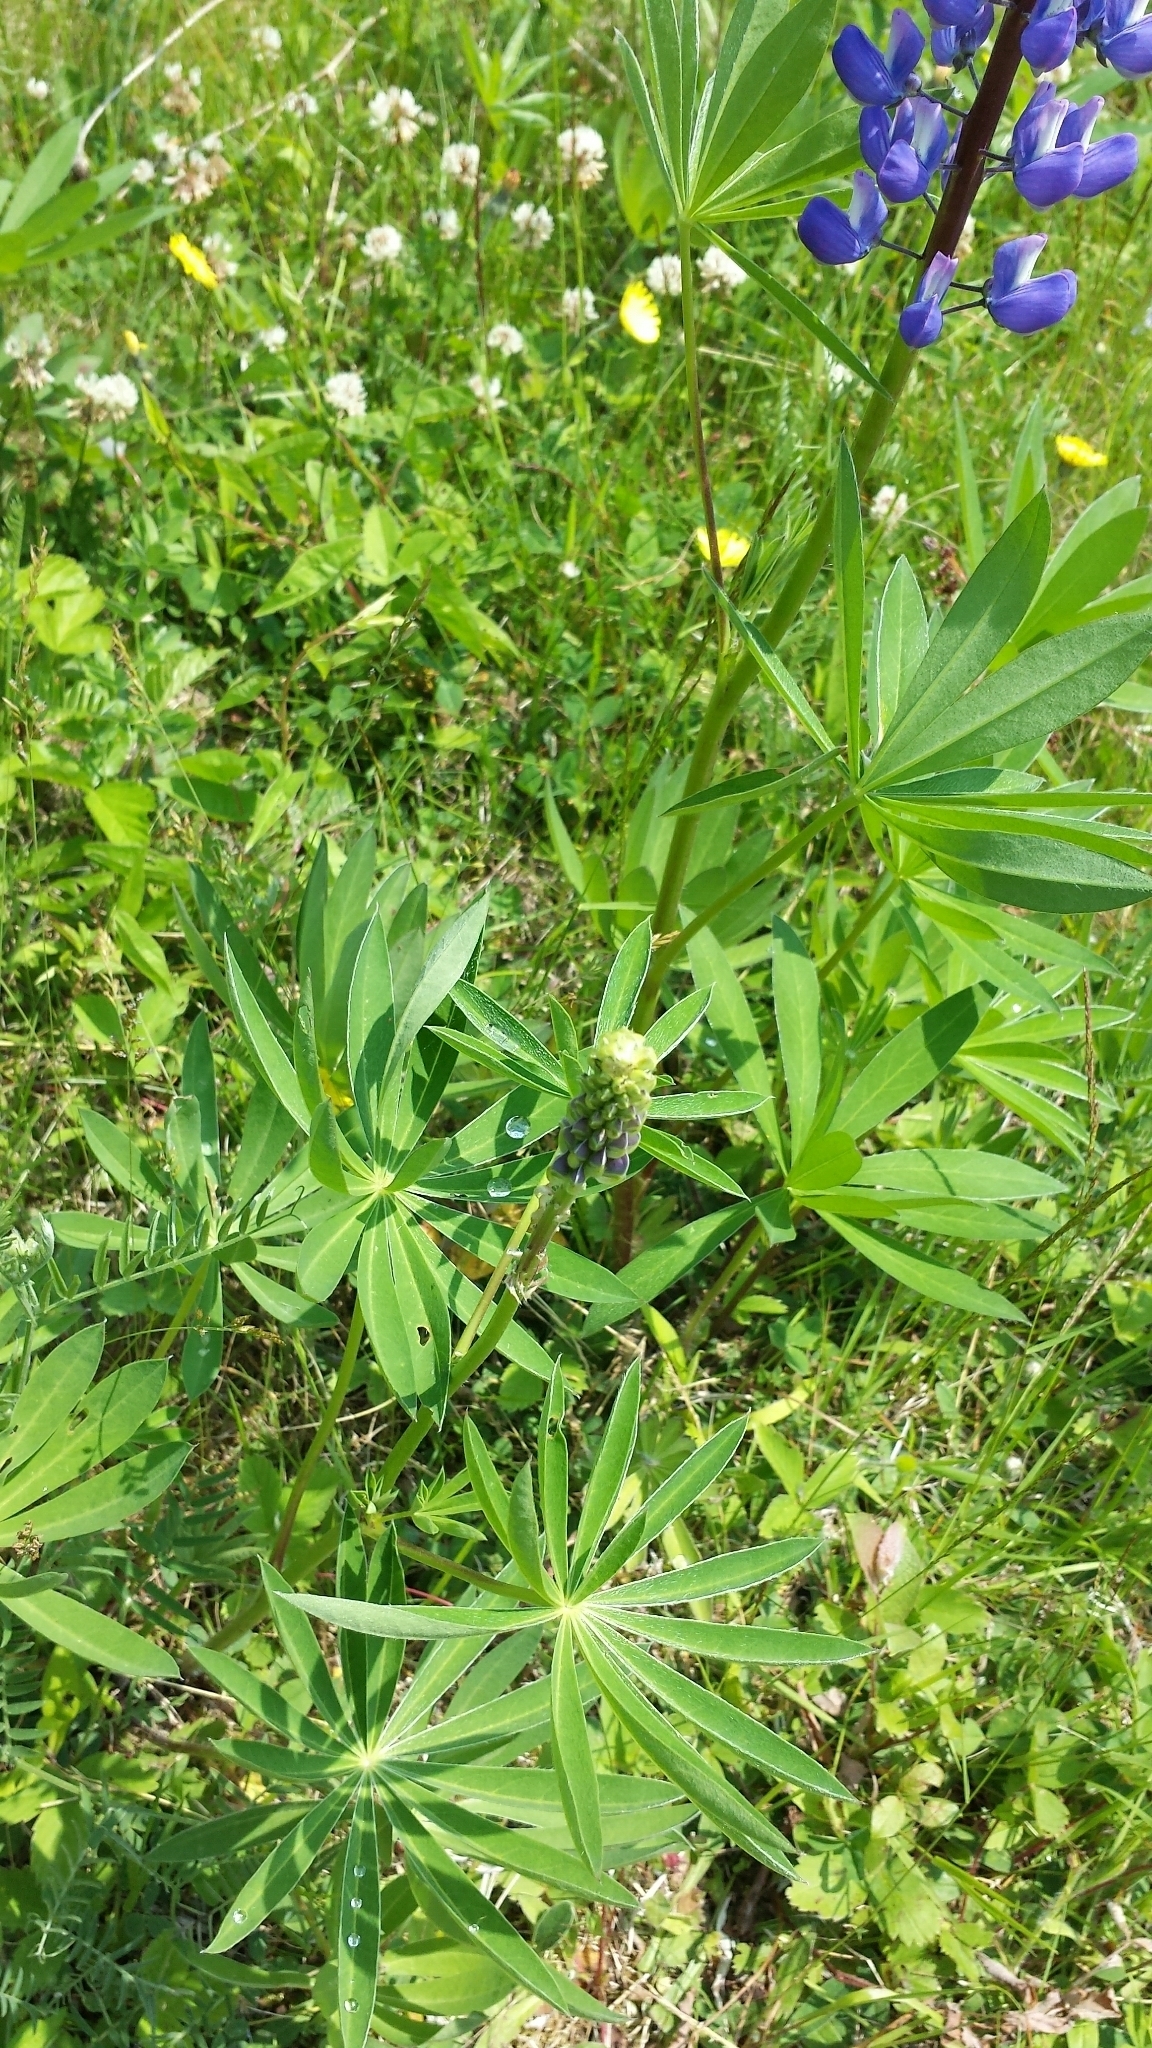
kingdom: Plantae
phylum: Tracheophyta
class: Magnoliopsida
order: Fabales
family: Fabaceae
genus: Lupinus
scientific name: Lupinus polyphyllus
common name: Garden lupin
